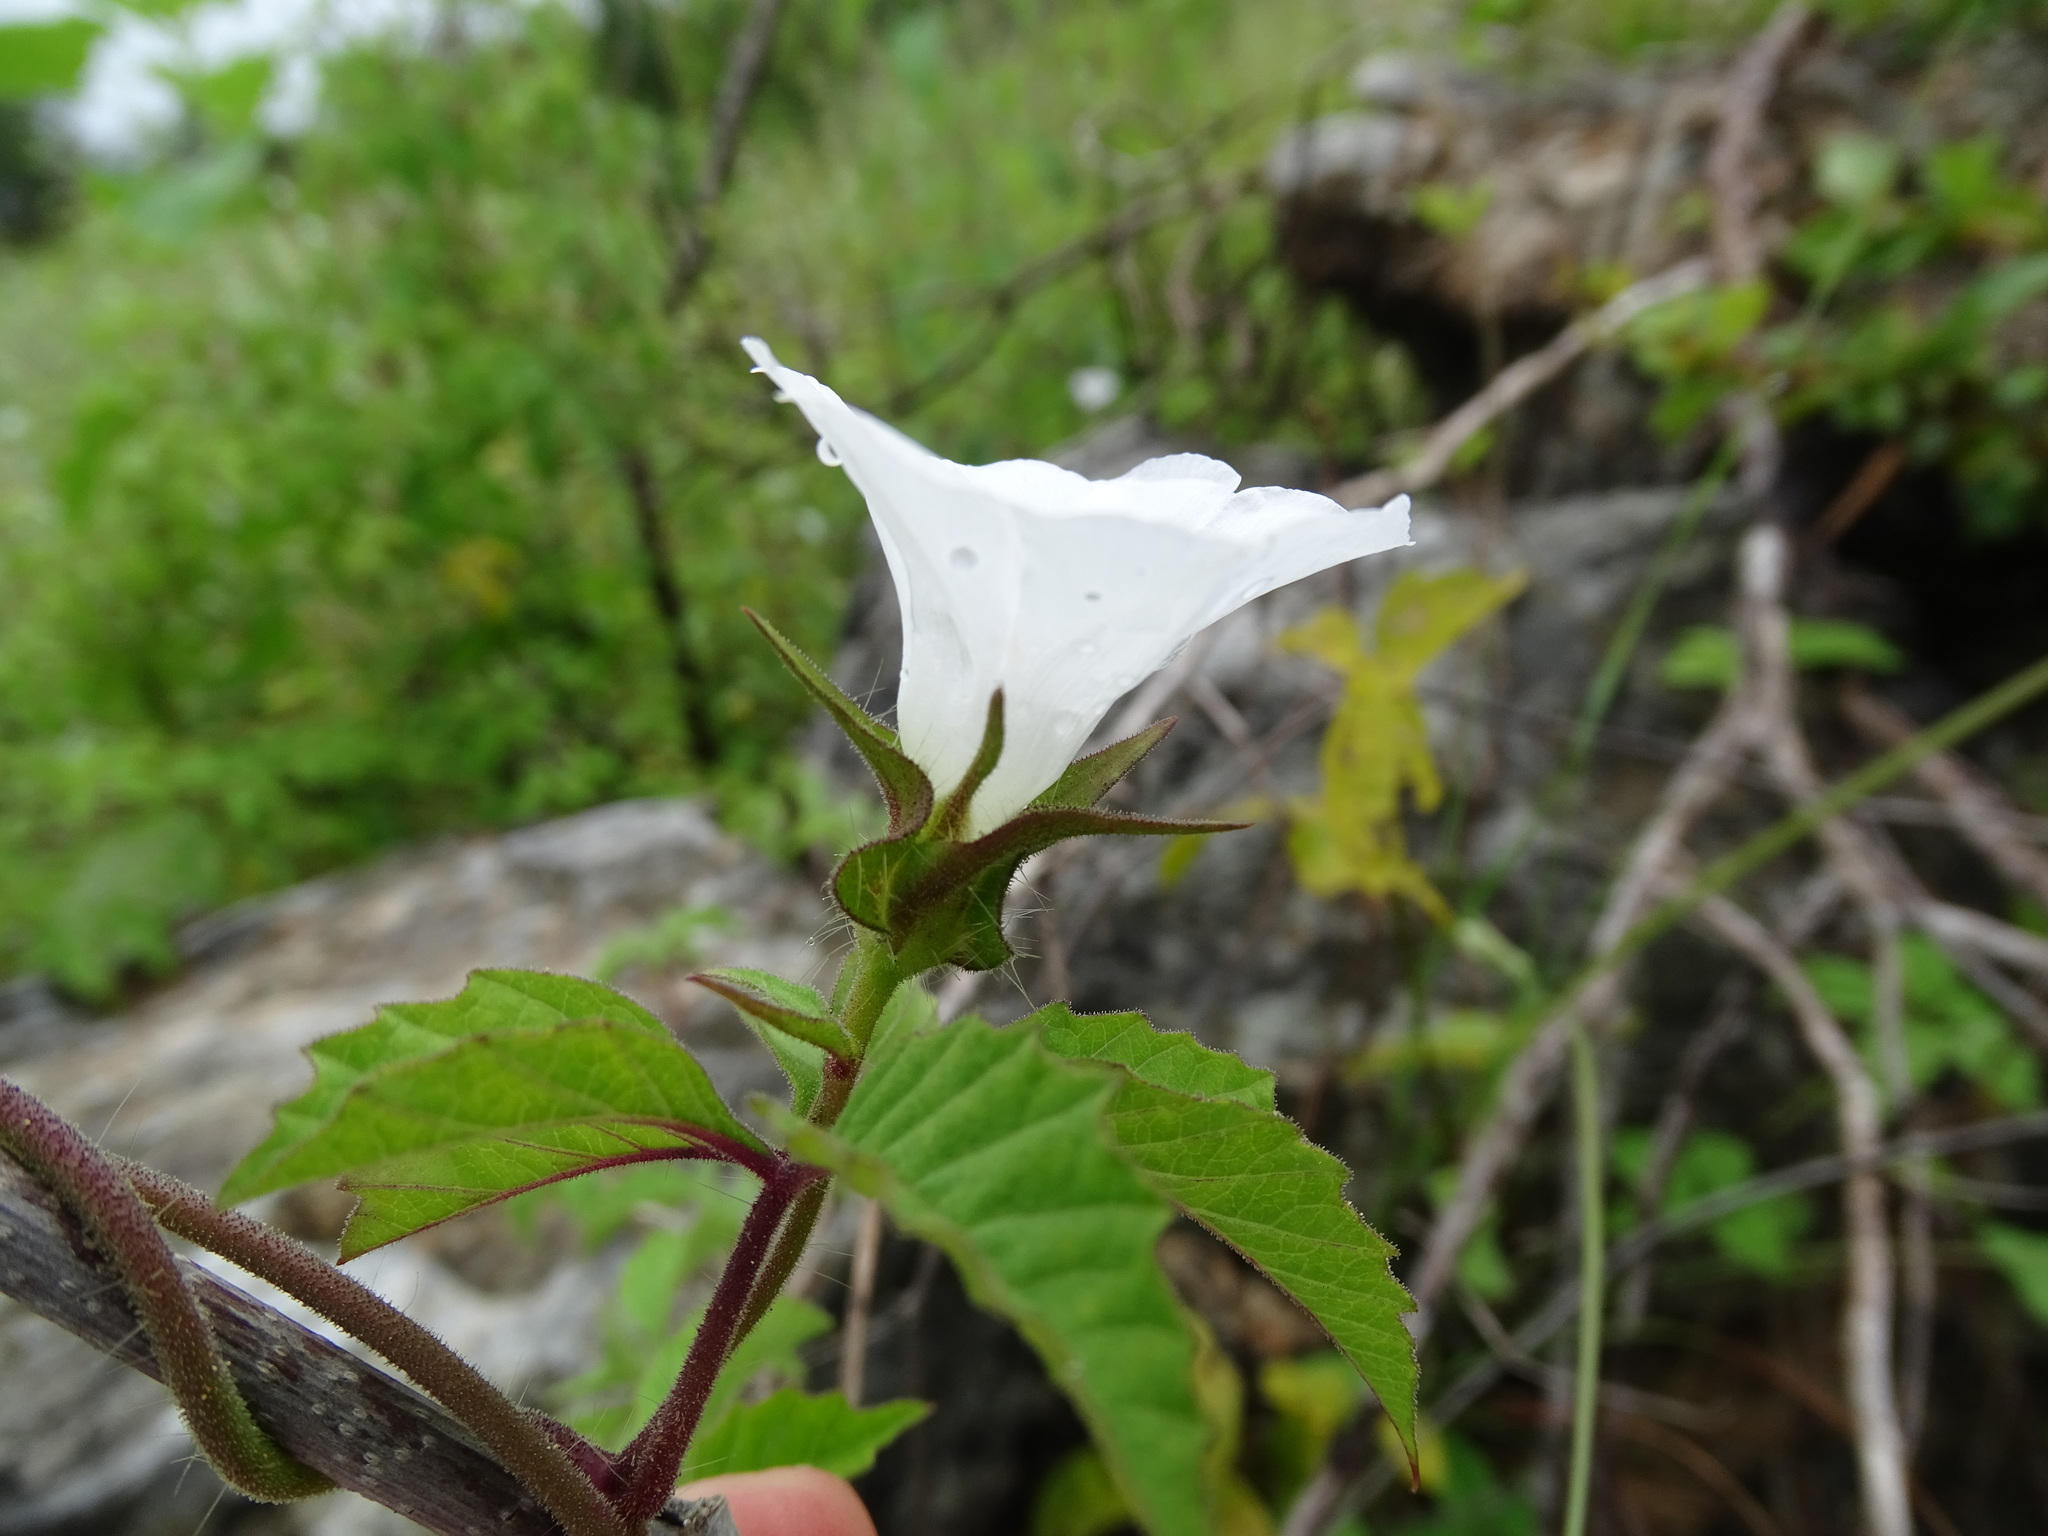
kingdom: Plantae
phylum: Tracheophyta
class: Magnoliopsida
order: Solanales
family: Convolvulaceae
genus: Distimake
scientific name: Distimake cissoides
